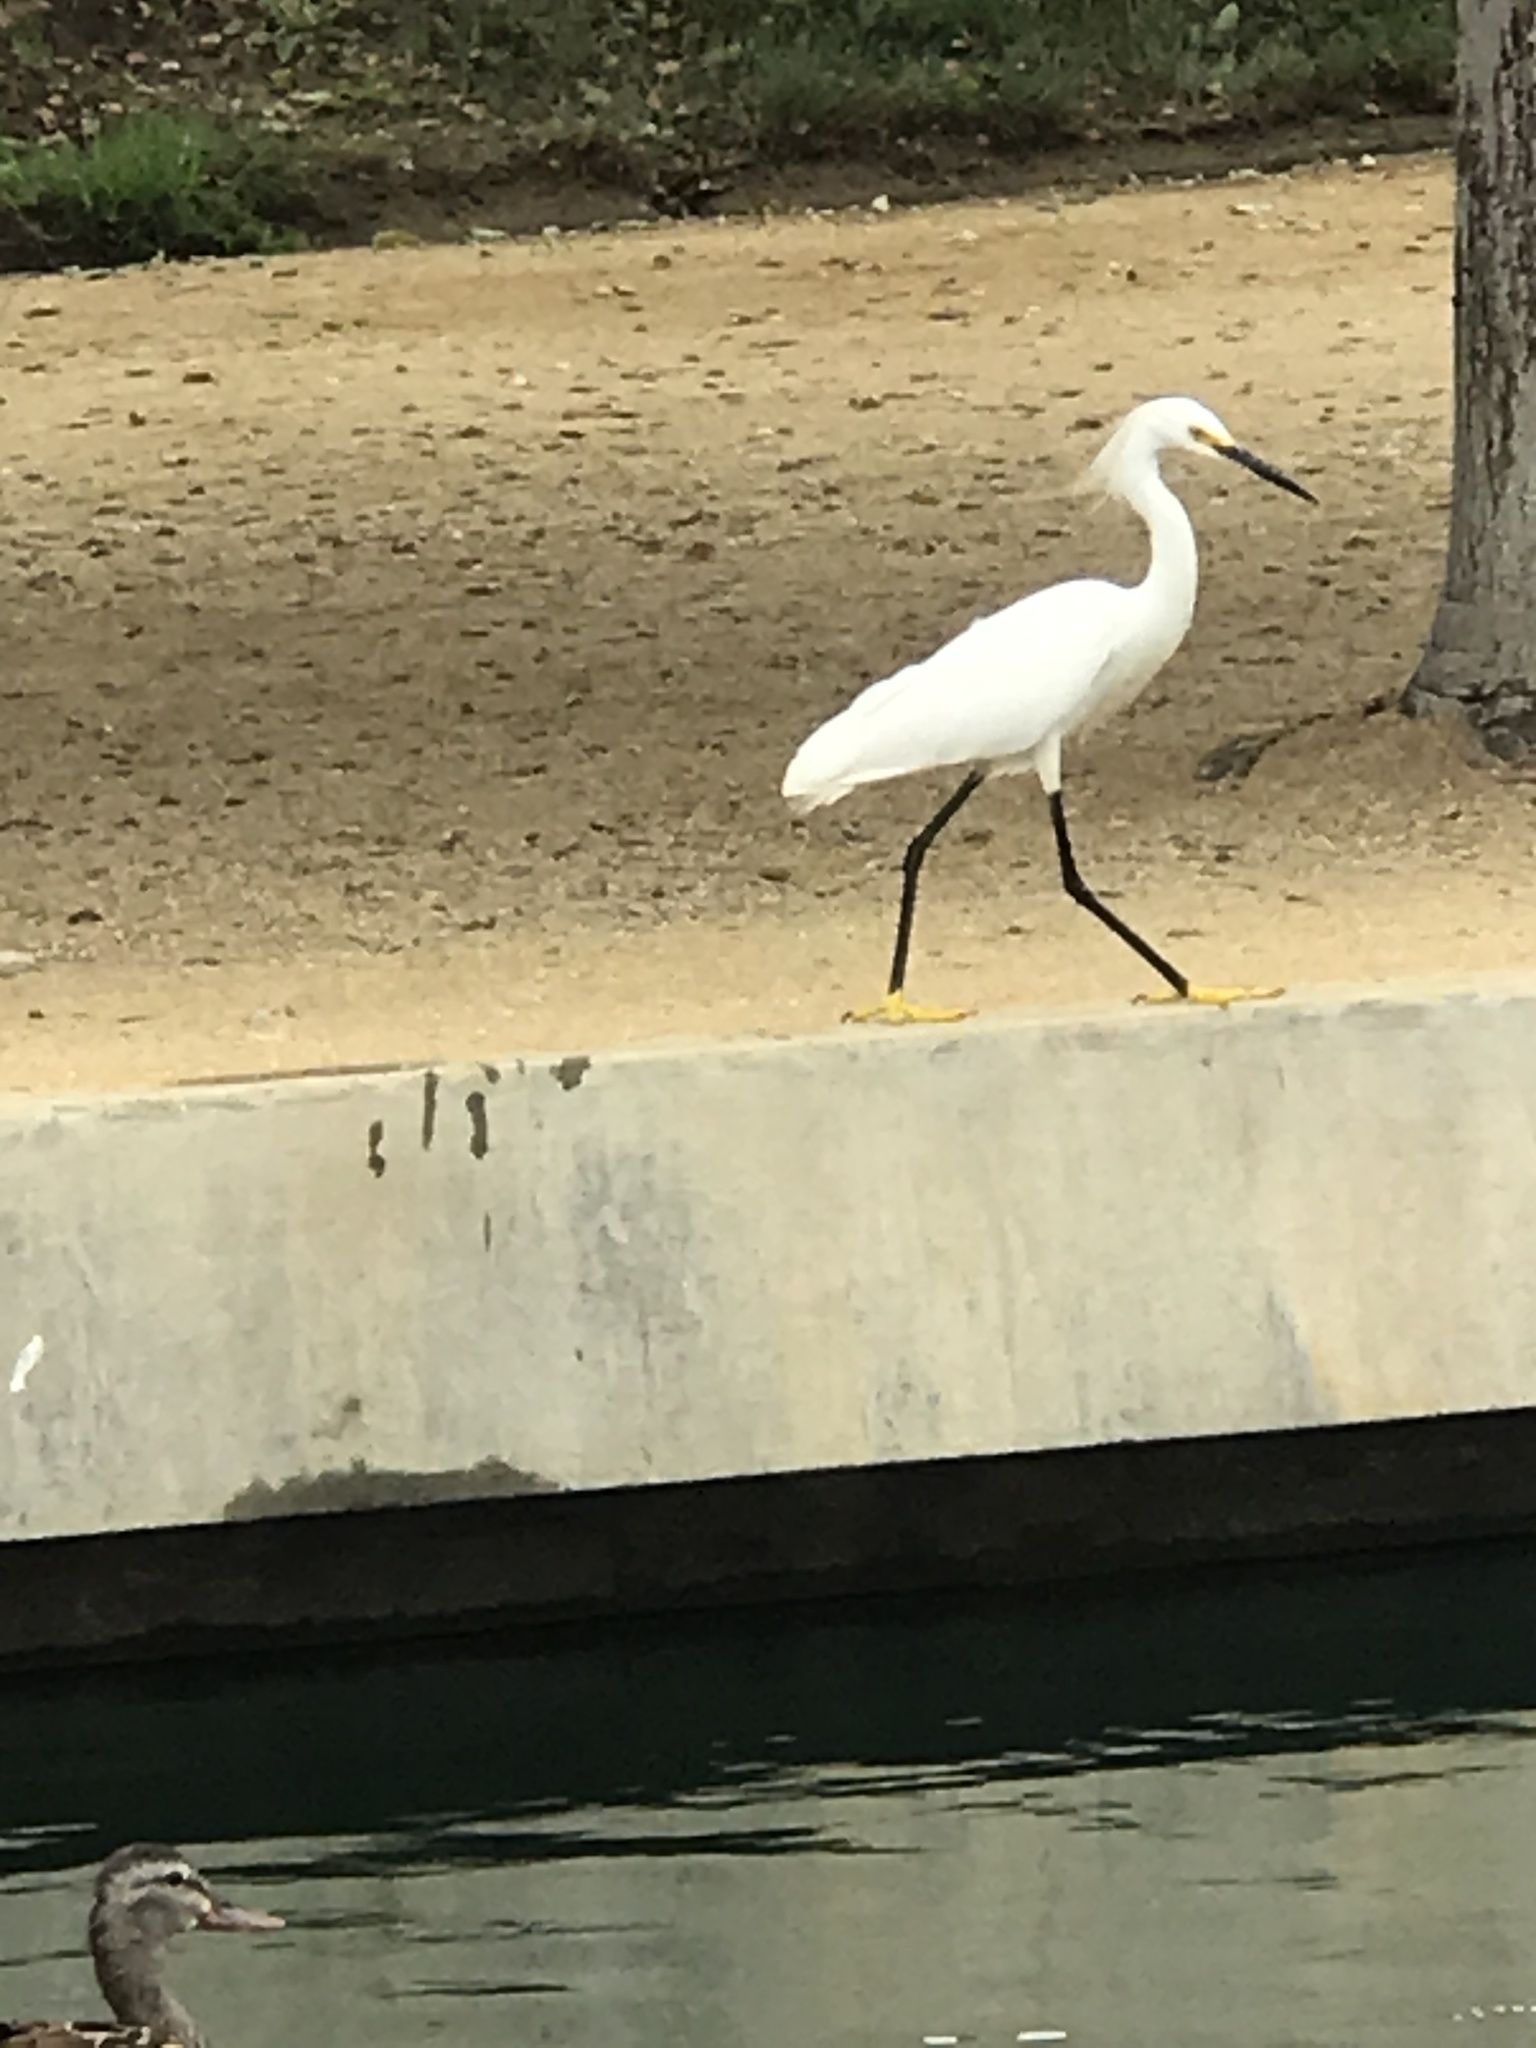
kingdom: Animalia
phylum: Chordata
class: Aves
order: Pelecaniformes
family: Ardeidae
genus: Egretta
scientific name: Egretta thula
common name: Snowy egret
